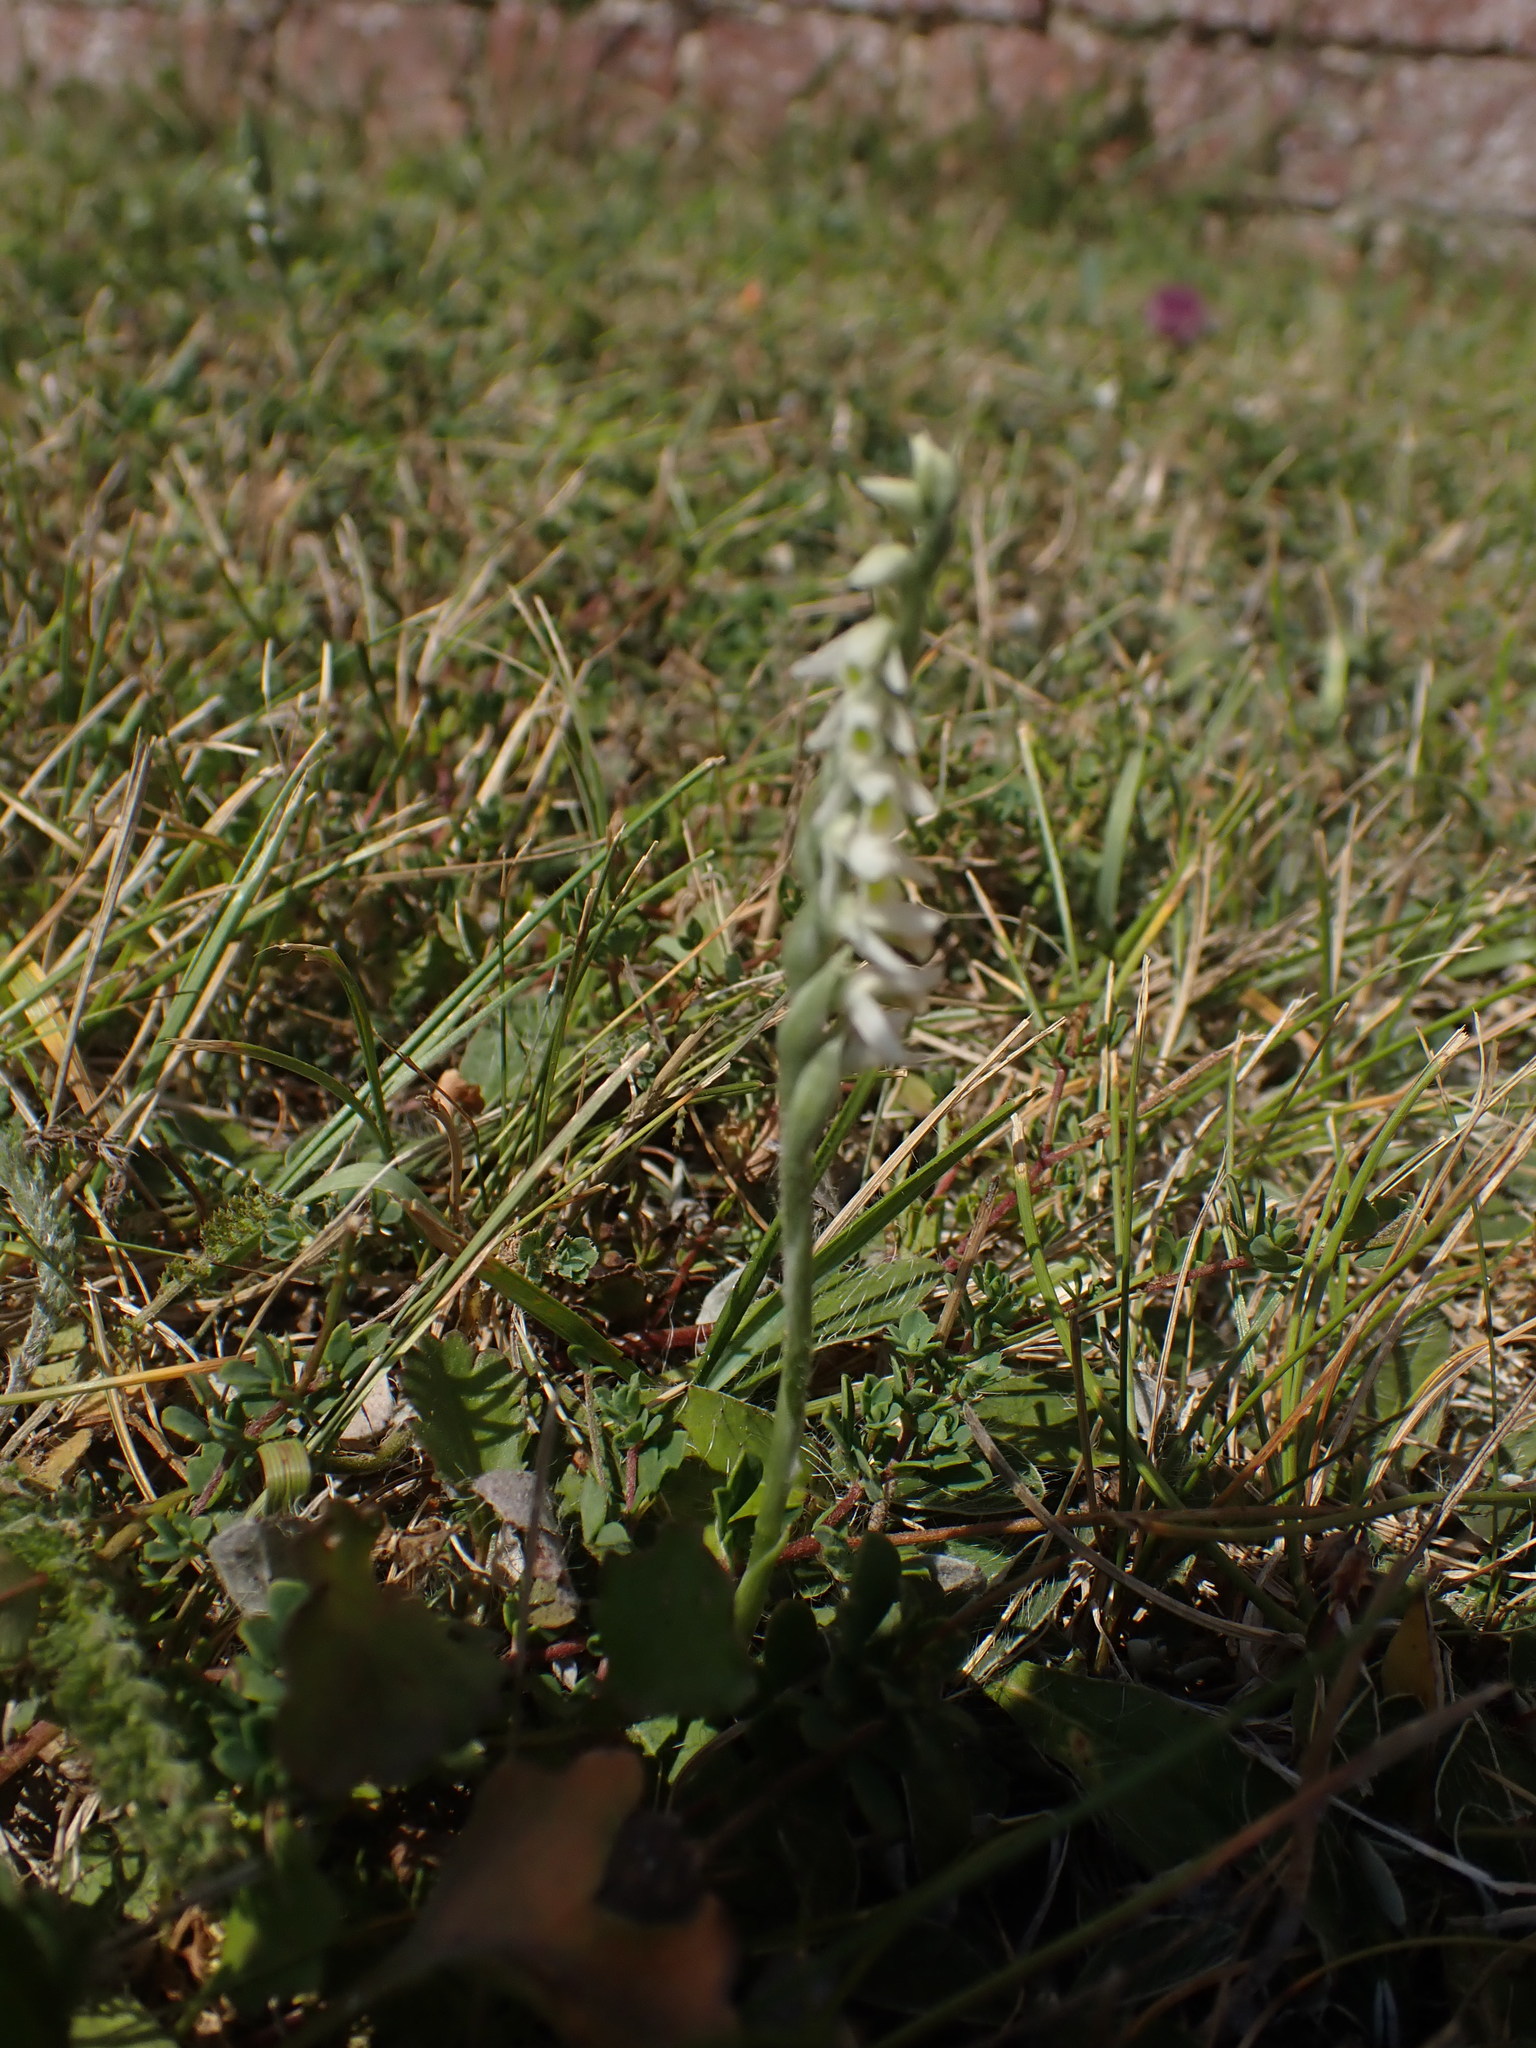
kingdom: Plantae
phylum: Tracheophyta
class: Liliopsida
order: Asparagales
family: Orchidaceae
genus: Spiranthes
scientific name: Spiranthes spiralis
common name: Autumn lady's-tresses
